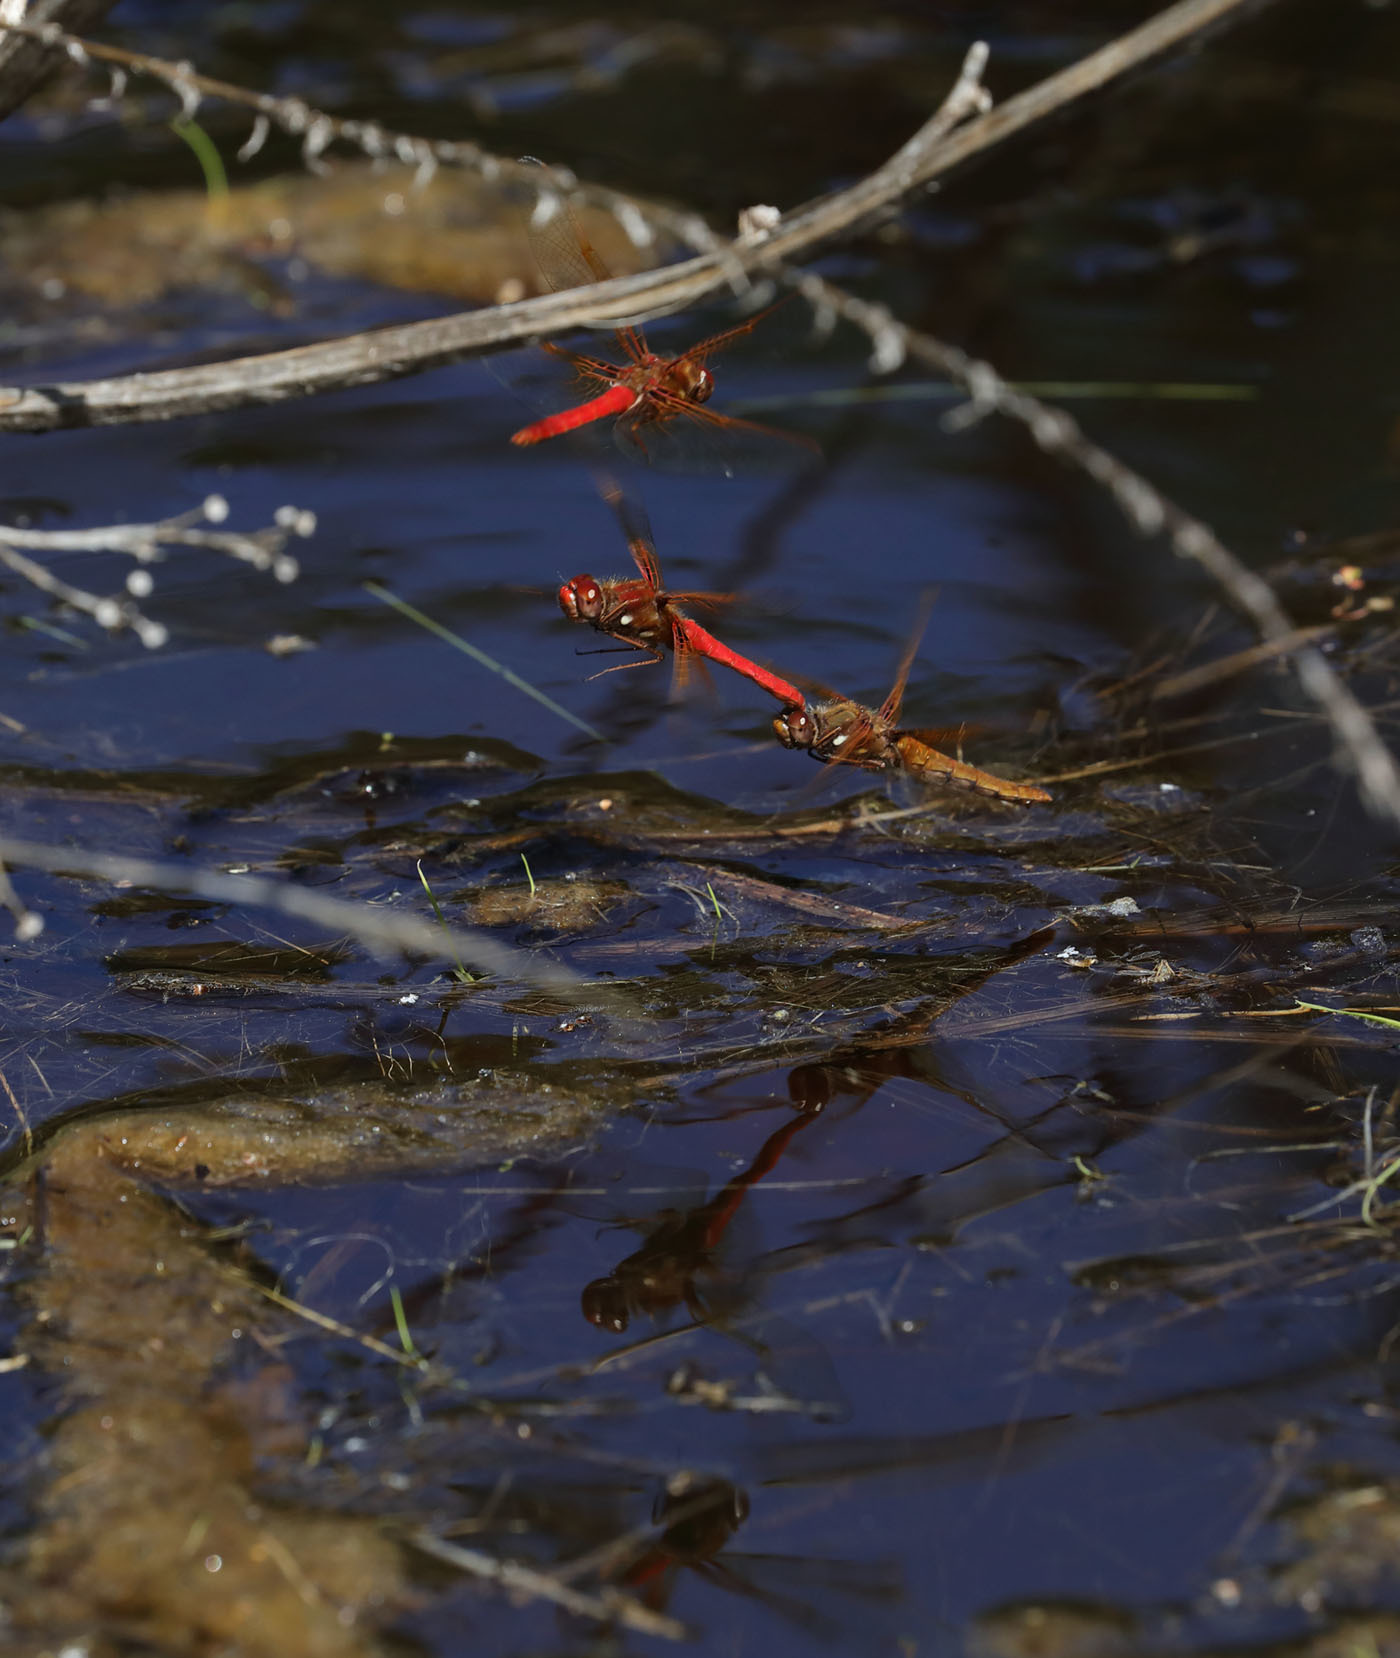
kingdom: Animalia
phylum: Arthropoda
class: Insecta
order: Odonata
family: Libellulidae
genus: Sympetrum
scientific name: Sympetrum illotum
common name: Cardinal meadowhawk
